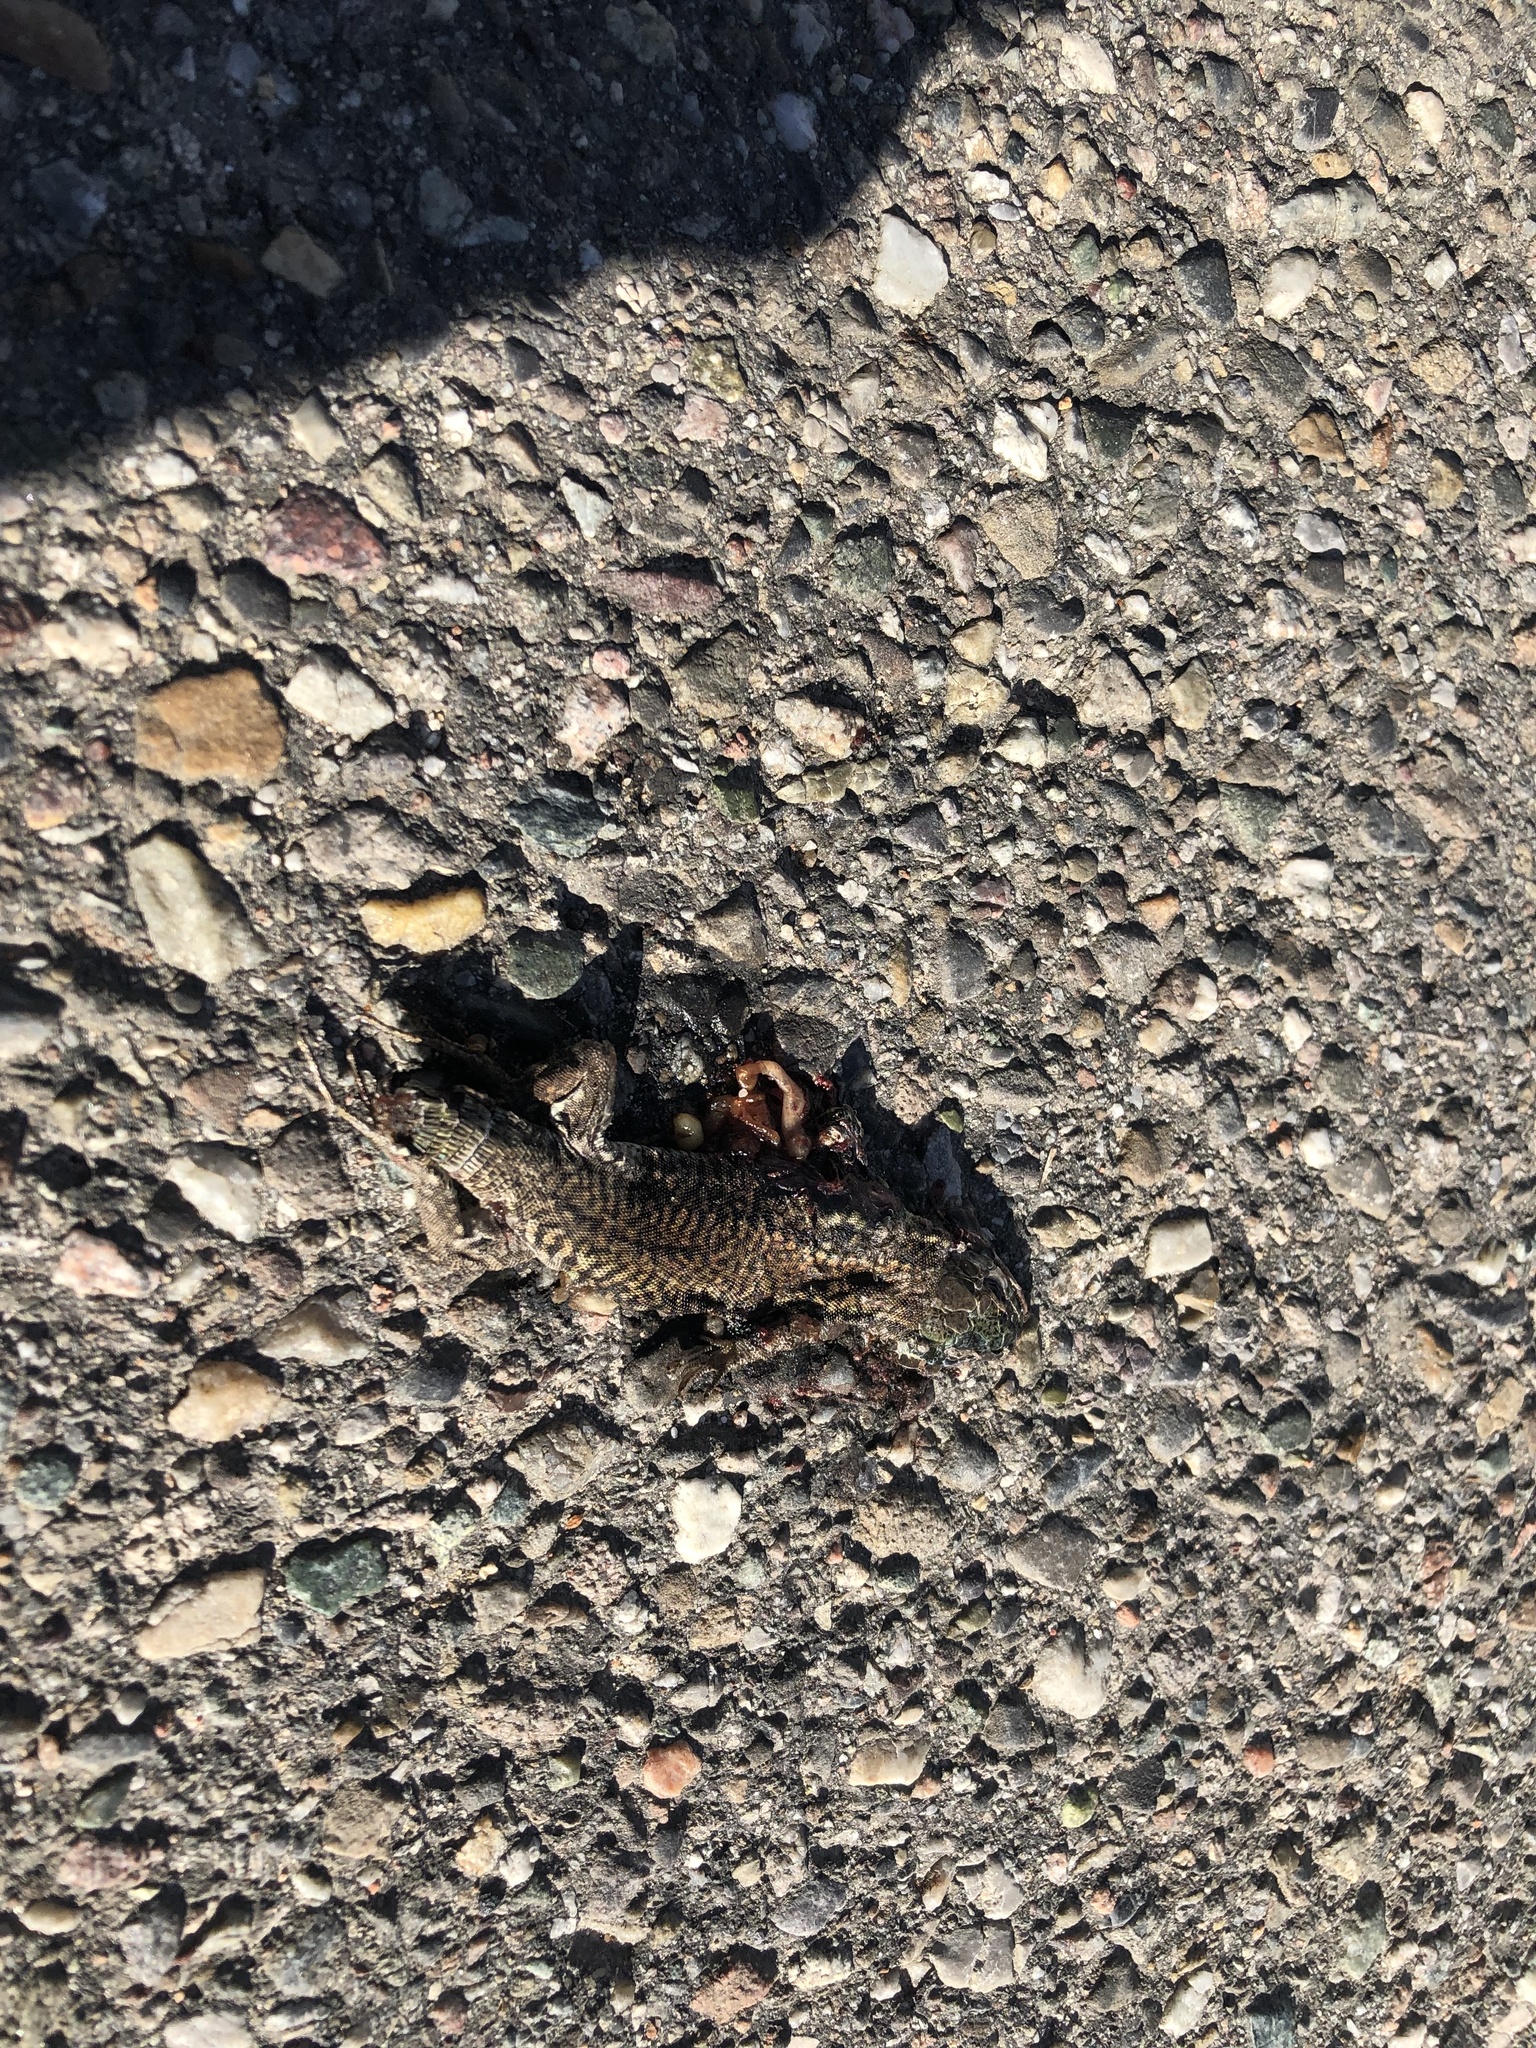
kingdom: Animalia
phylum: Chordata
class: Squamata
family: Lacertidae
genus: Podarcis
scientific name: Podarcis muralis
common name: Common wall lizard
